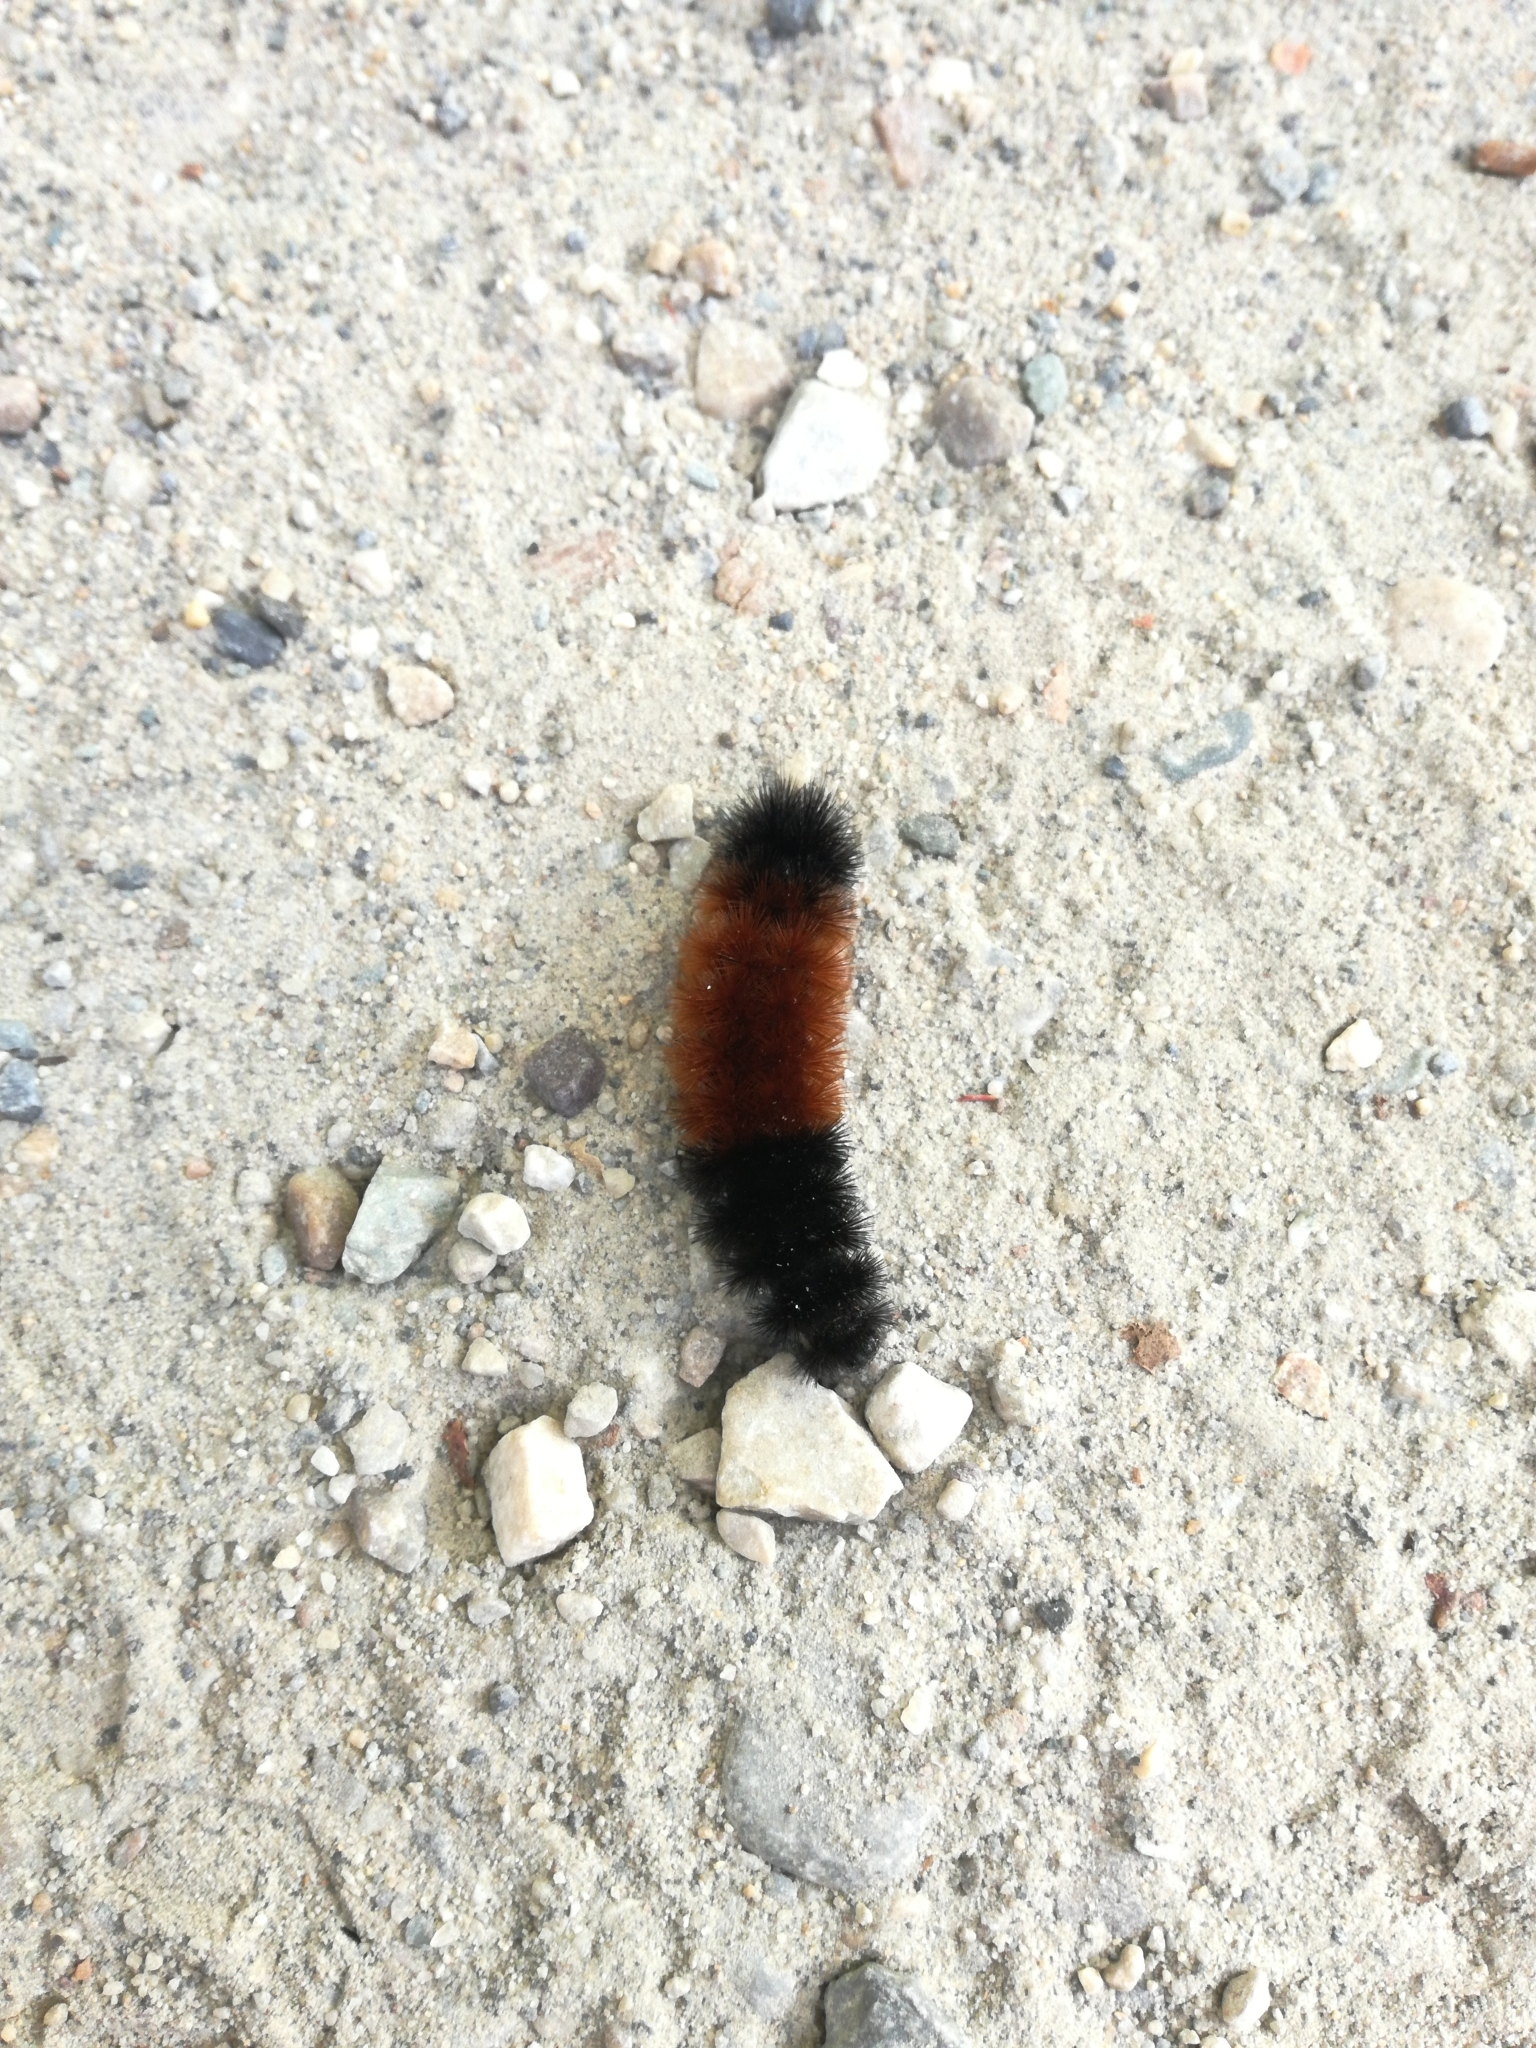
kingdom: Animalia
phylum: Arthropoda
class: Insecta
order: Lepidoptera
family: Erebidae
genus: Pyrrharctia
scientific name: Pyrrharctia isabella
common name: Isabella tiger moth
